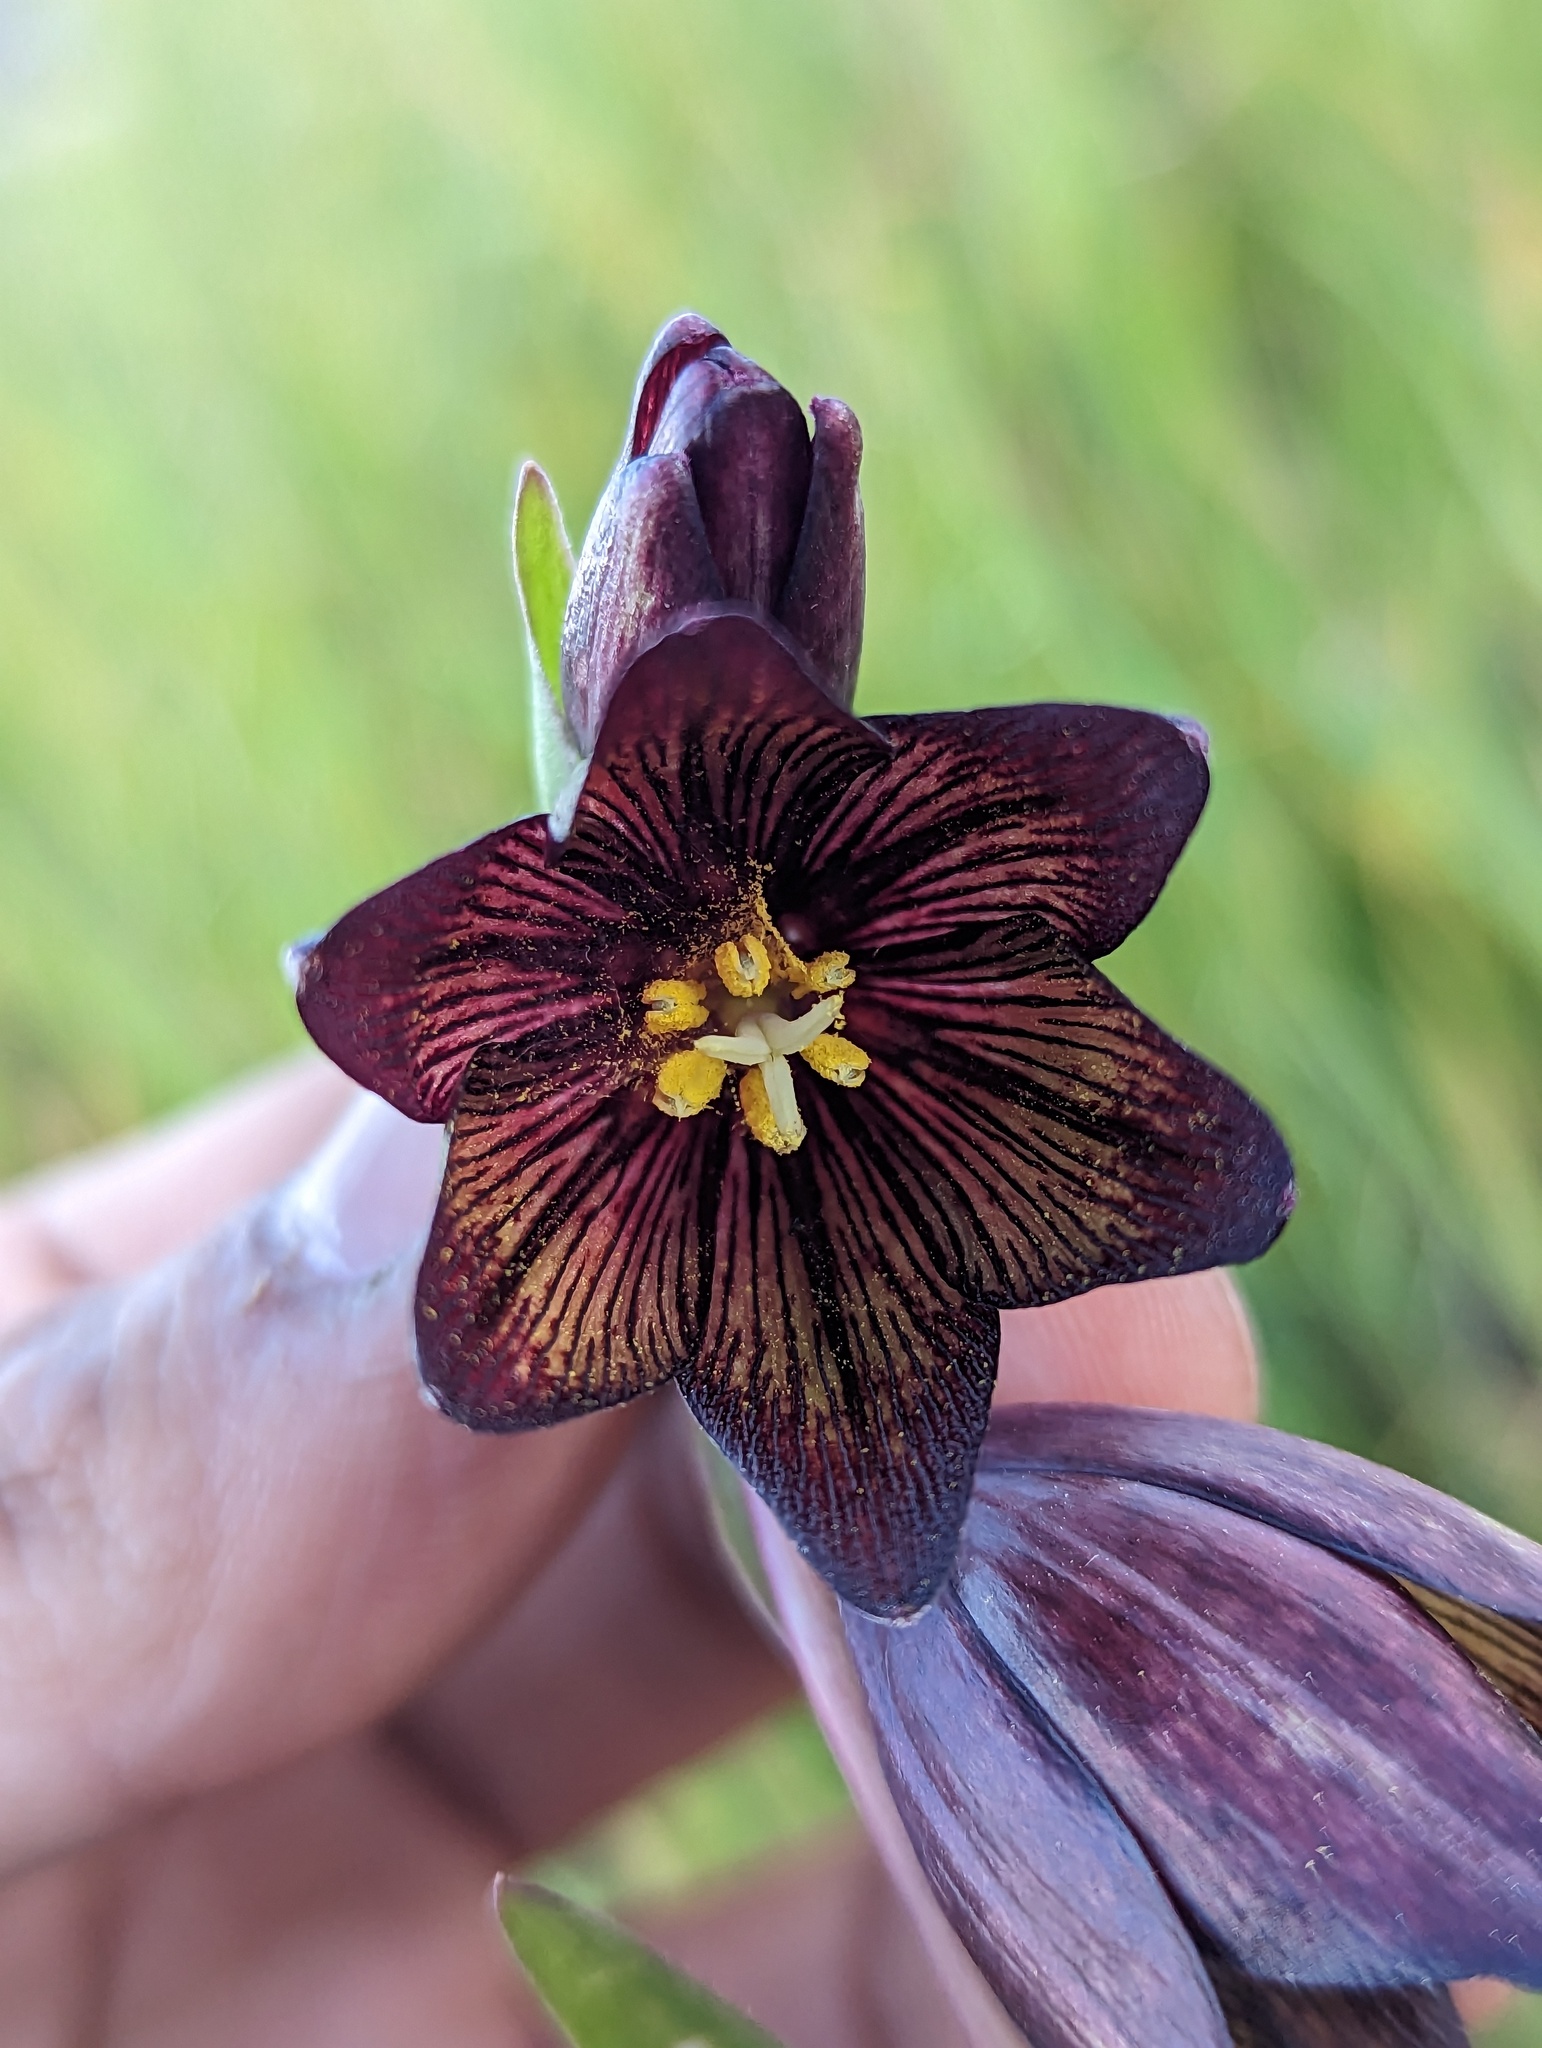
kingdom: Plantae
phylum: Tracheophyta
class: Liliopsida
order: Liliales
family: Liliaceae
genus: Fritillaria
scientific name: Fritillaria biflora
